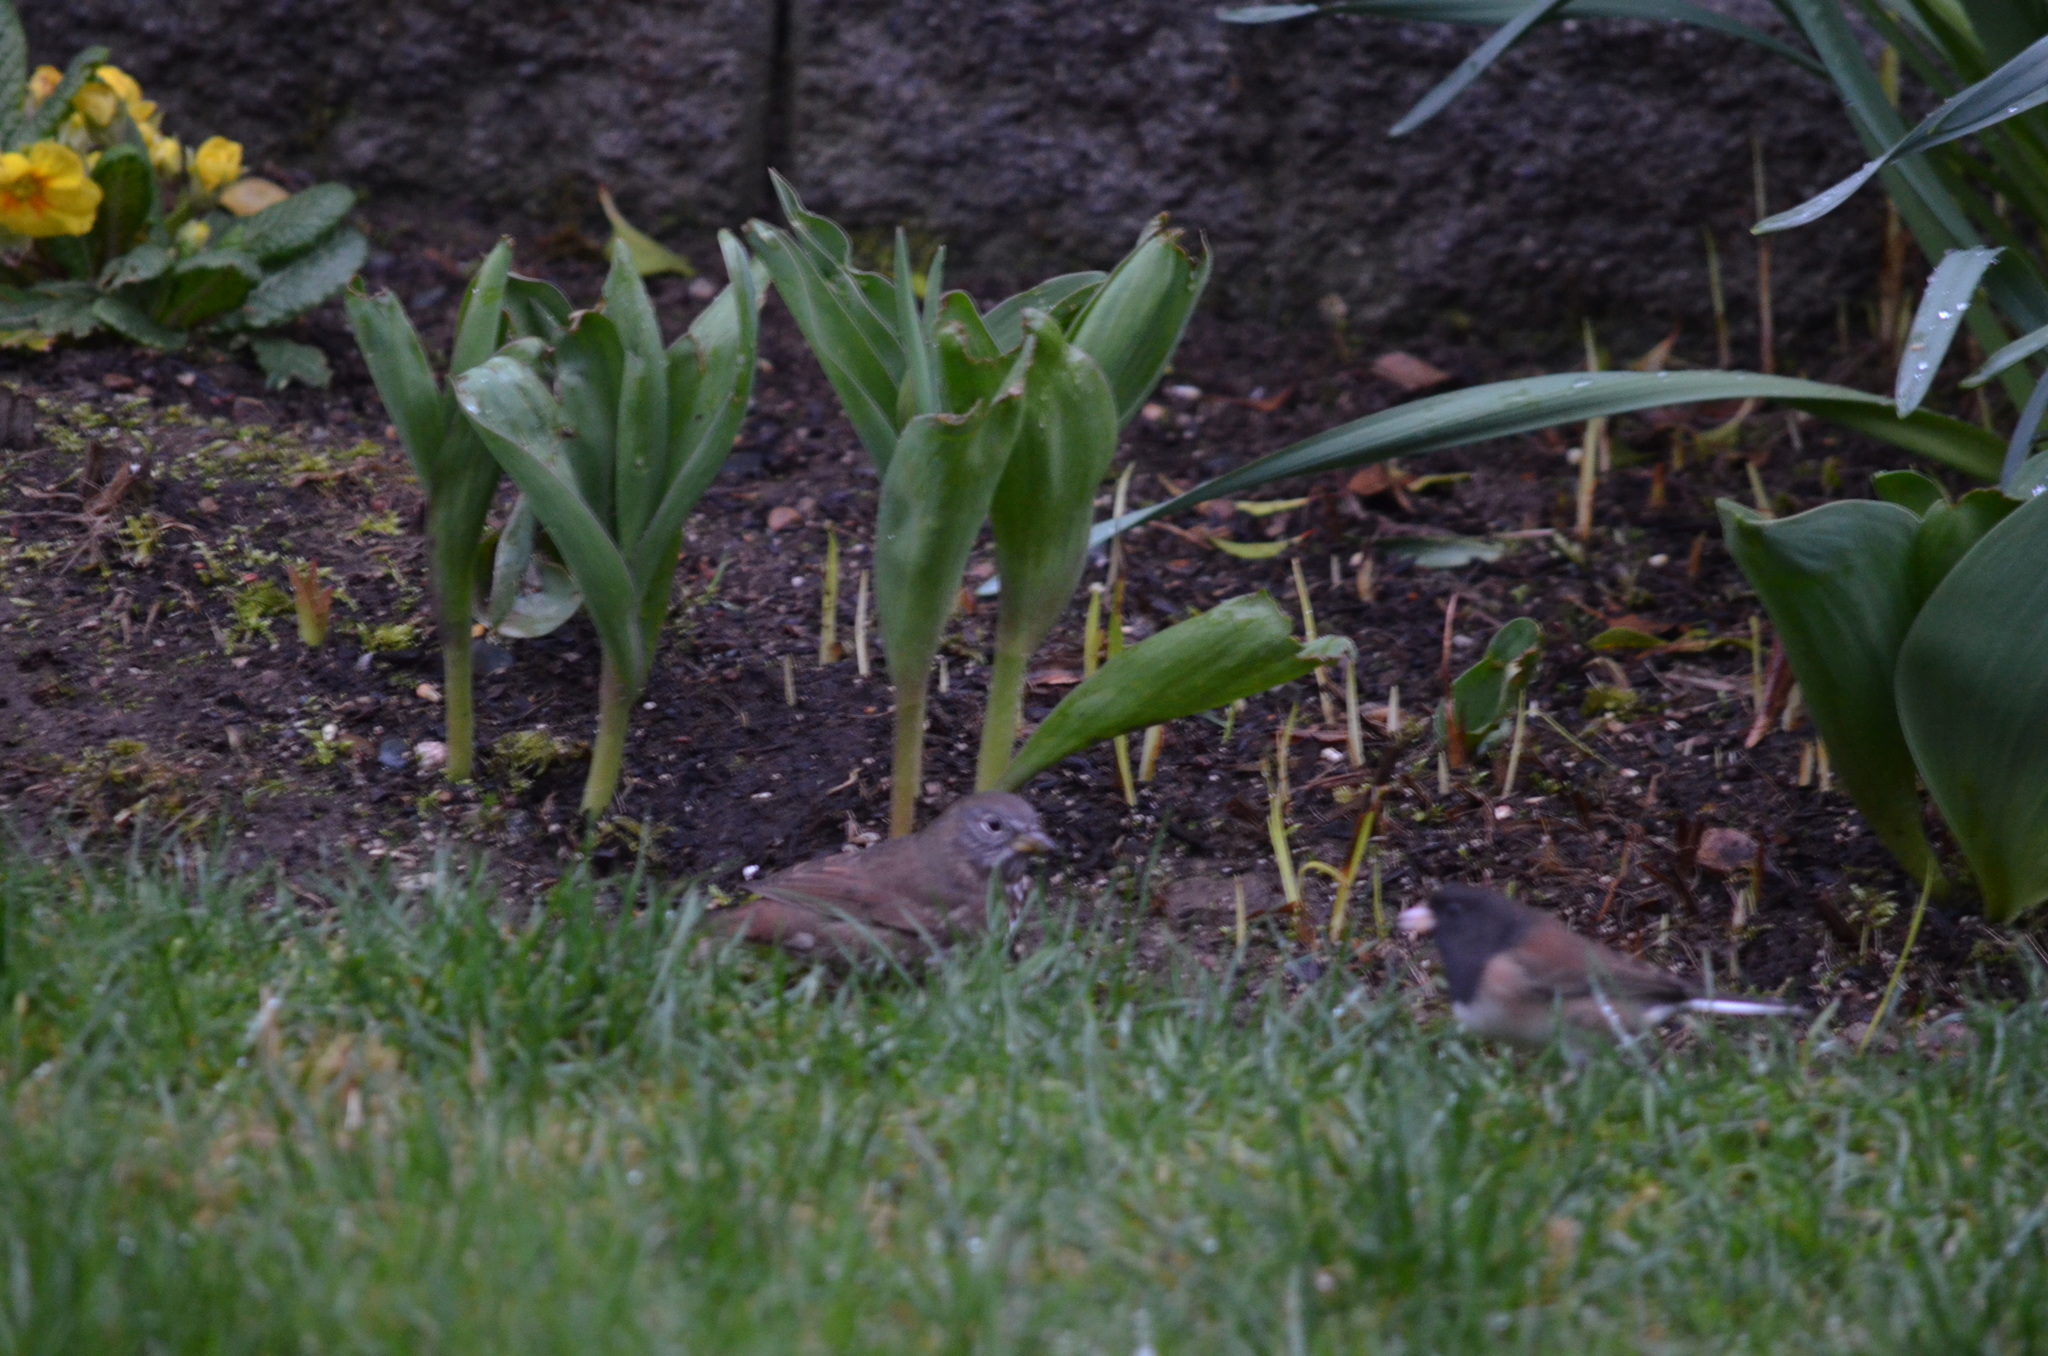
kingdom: Animalia
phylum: Chordata
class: Aves
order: Passeriformes
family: Passerellidae
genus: Passerella
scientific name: Passerella iliaca
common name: Fox sparrow
